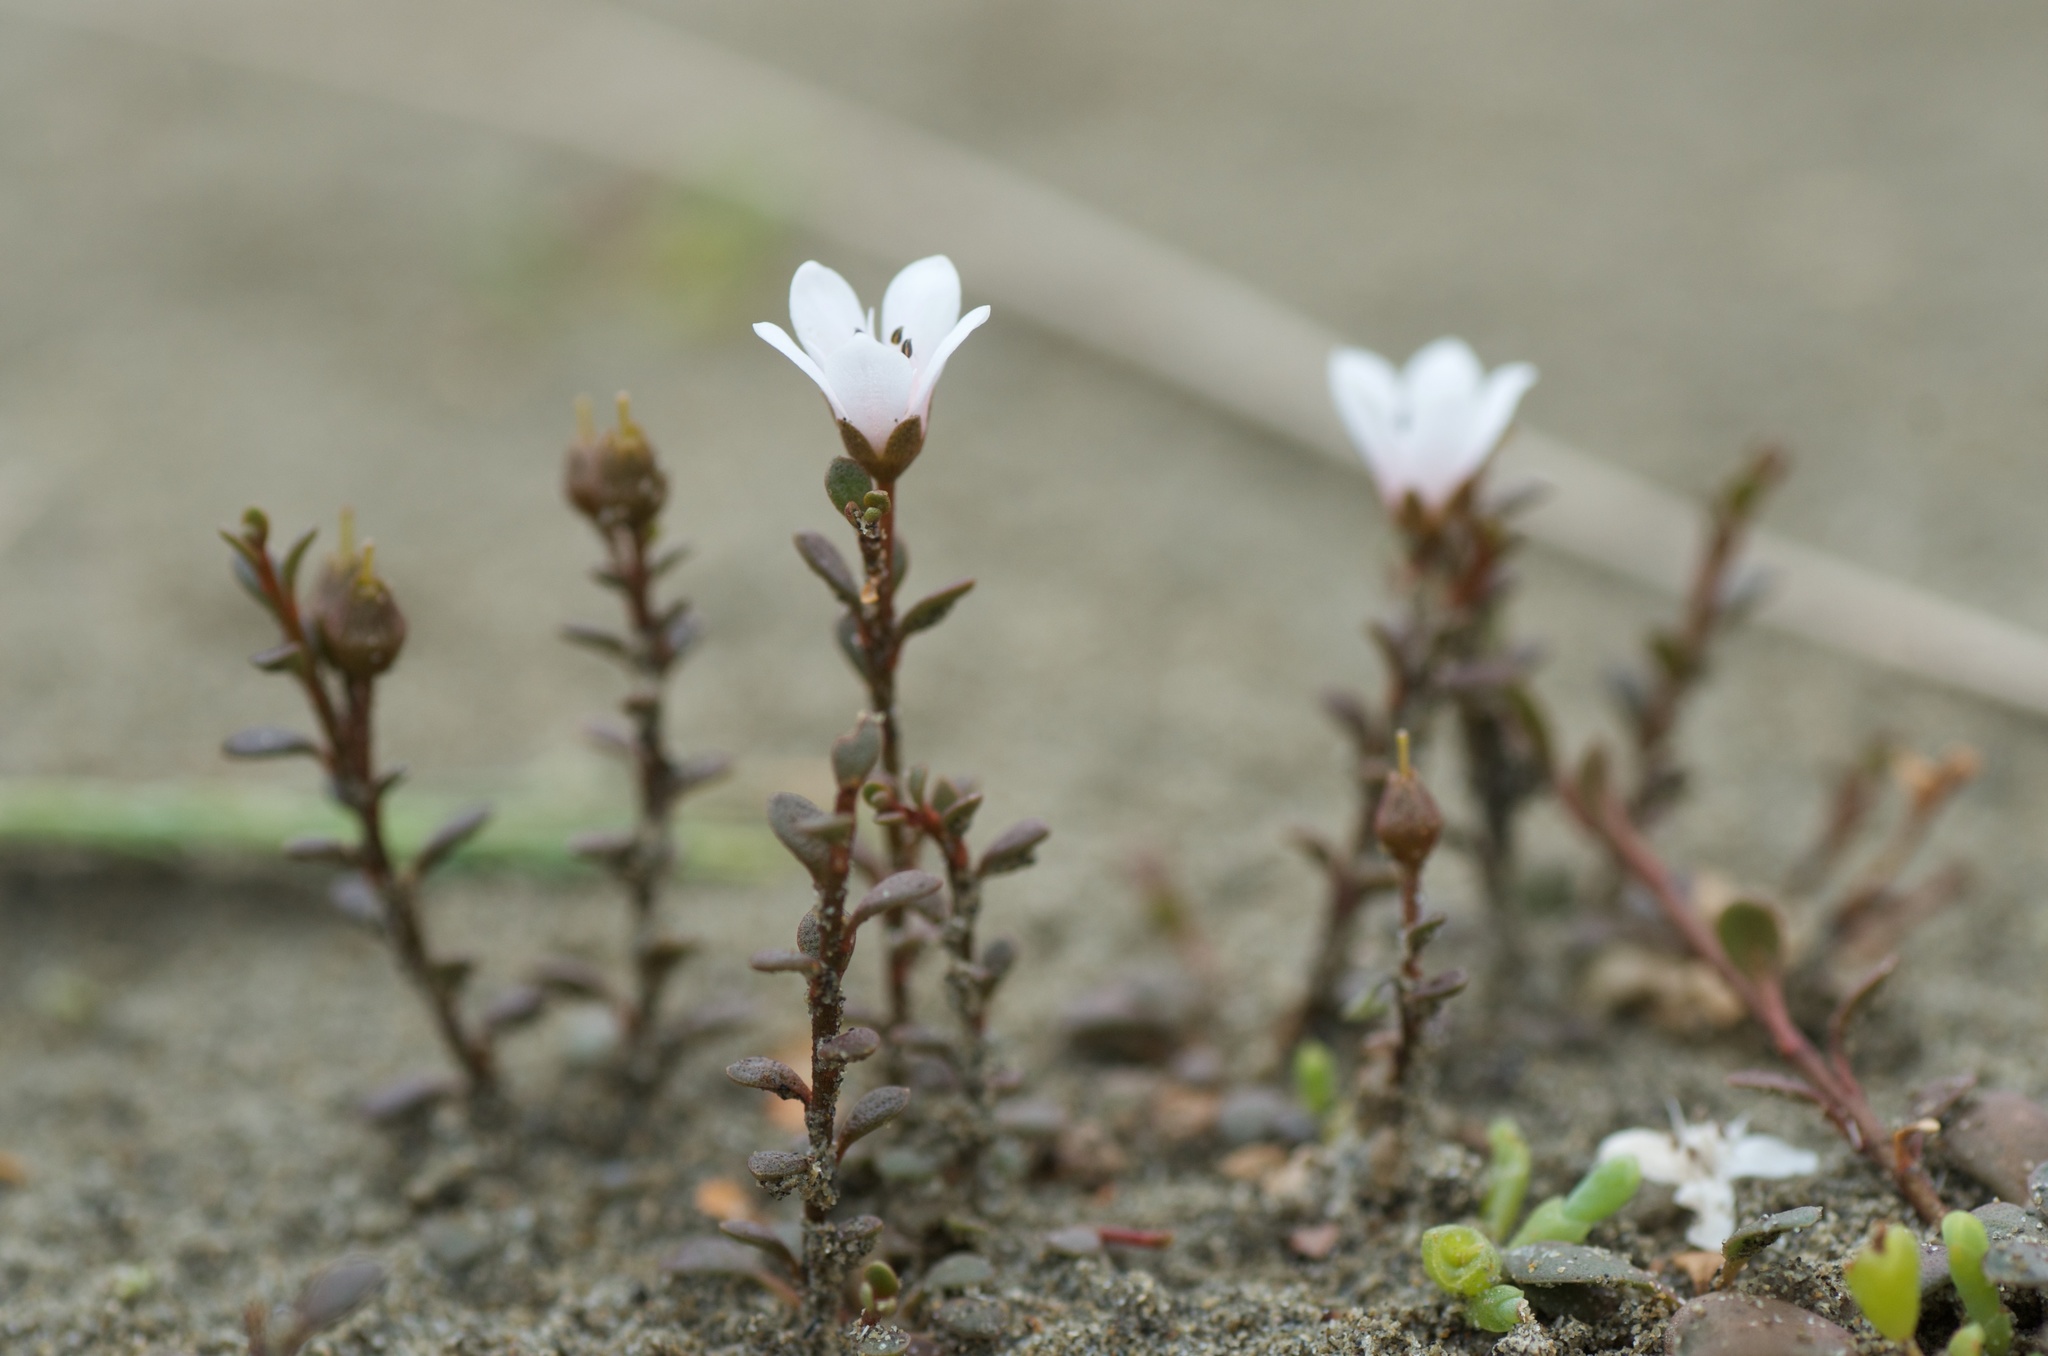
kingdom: Plantae
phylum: Tracheophyta
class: Magnoliopsida
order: Ericales
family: Primulaceae
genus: Samolus
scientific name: Samolus repens
